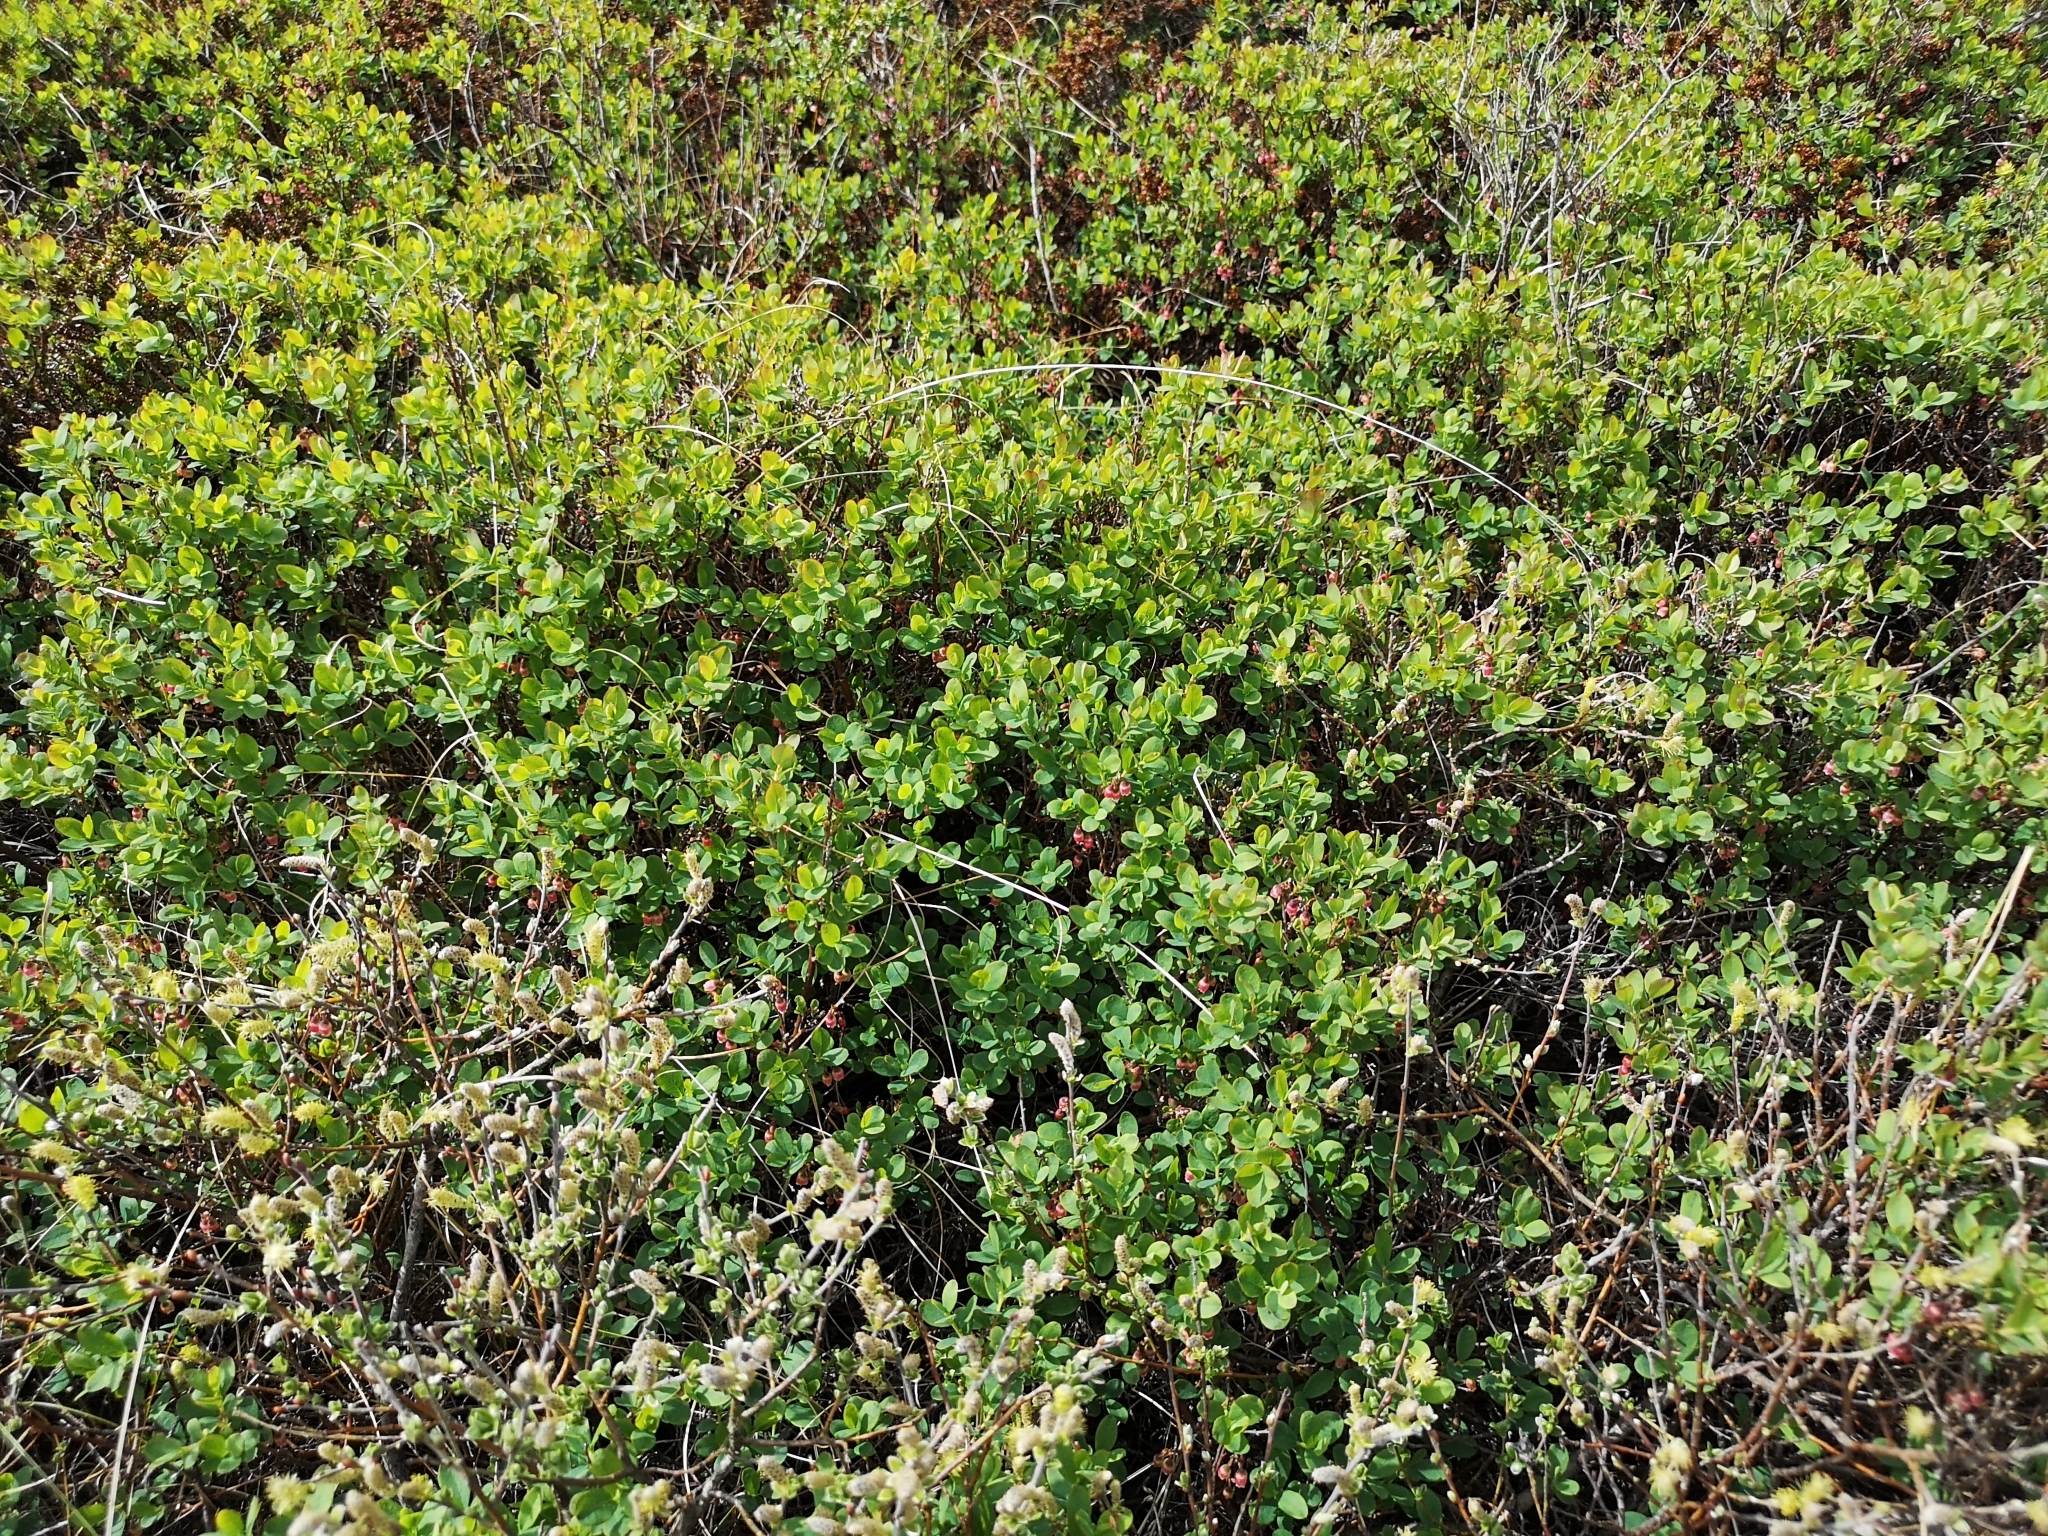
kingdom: Plantae
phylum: Tracheophyta
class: Magnoliopsida
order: Ericales
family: Ericaceae
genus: Vaccinium
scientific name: Vaccinium uliginosum
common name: Bog bilberry
